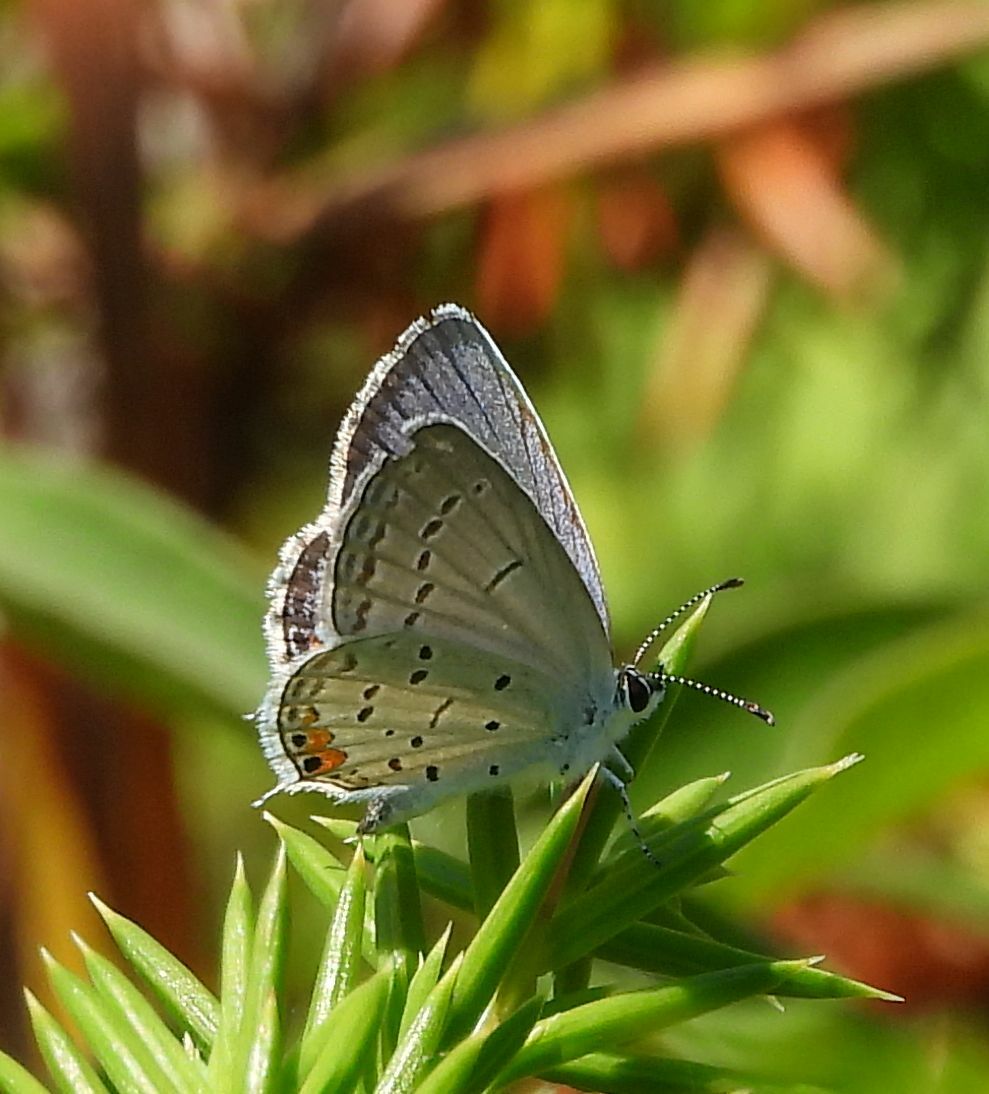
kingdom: Animalia
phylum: Arthropoda
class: Insecta
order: Lepidoptera
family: Lycaenidae
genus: Elkalyce
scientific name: Elkalyce comyntas
